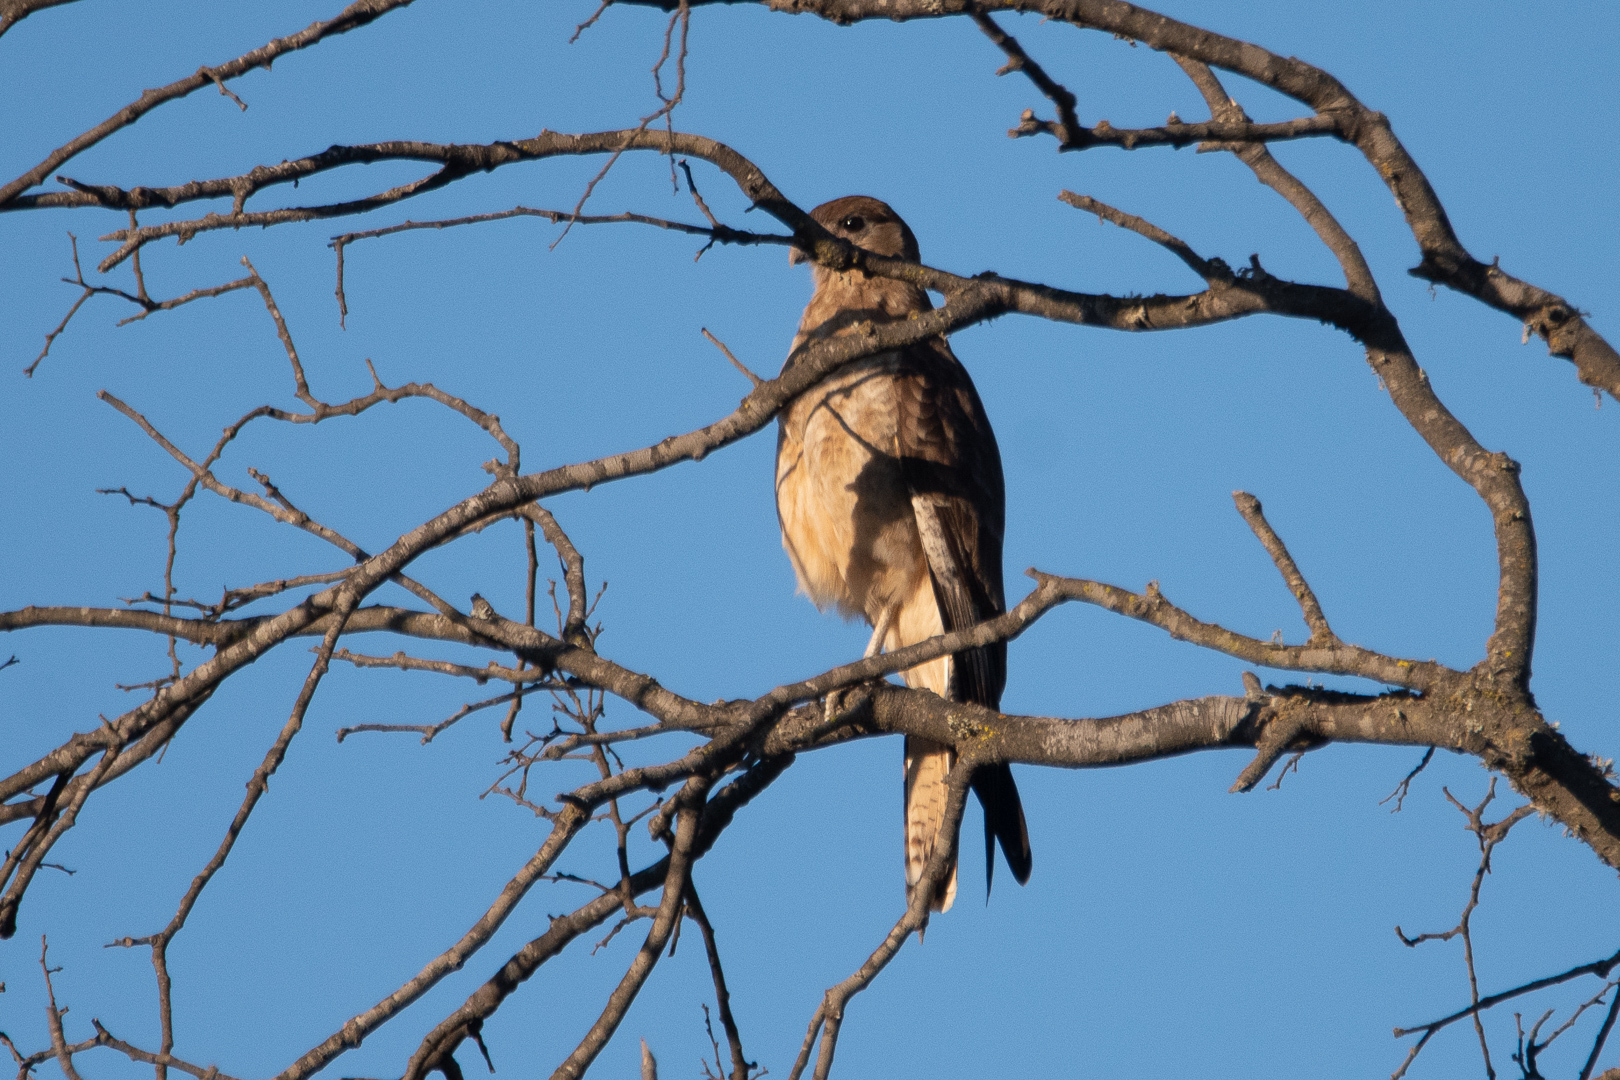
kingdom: Animalia
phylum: Chordata
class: Aves
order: Falconiformes
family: Falconidae
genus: Daptrius
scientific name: Daptrius
